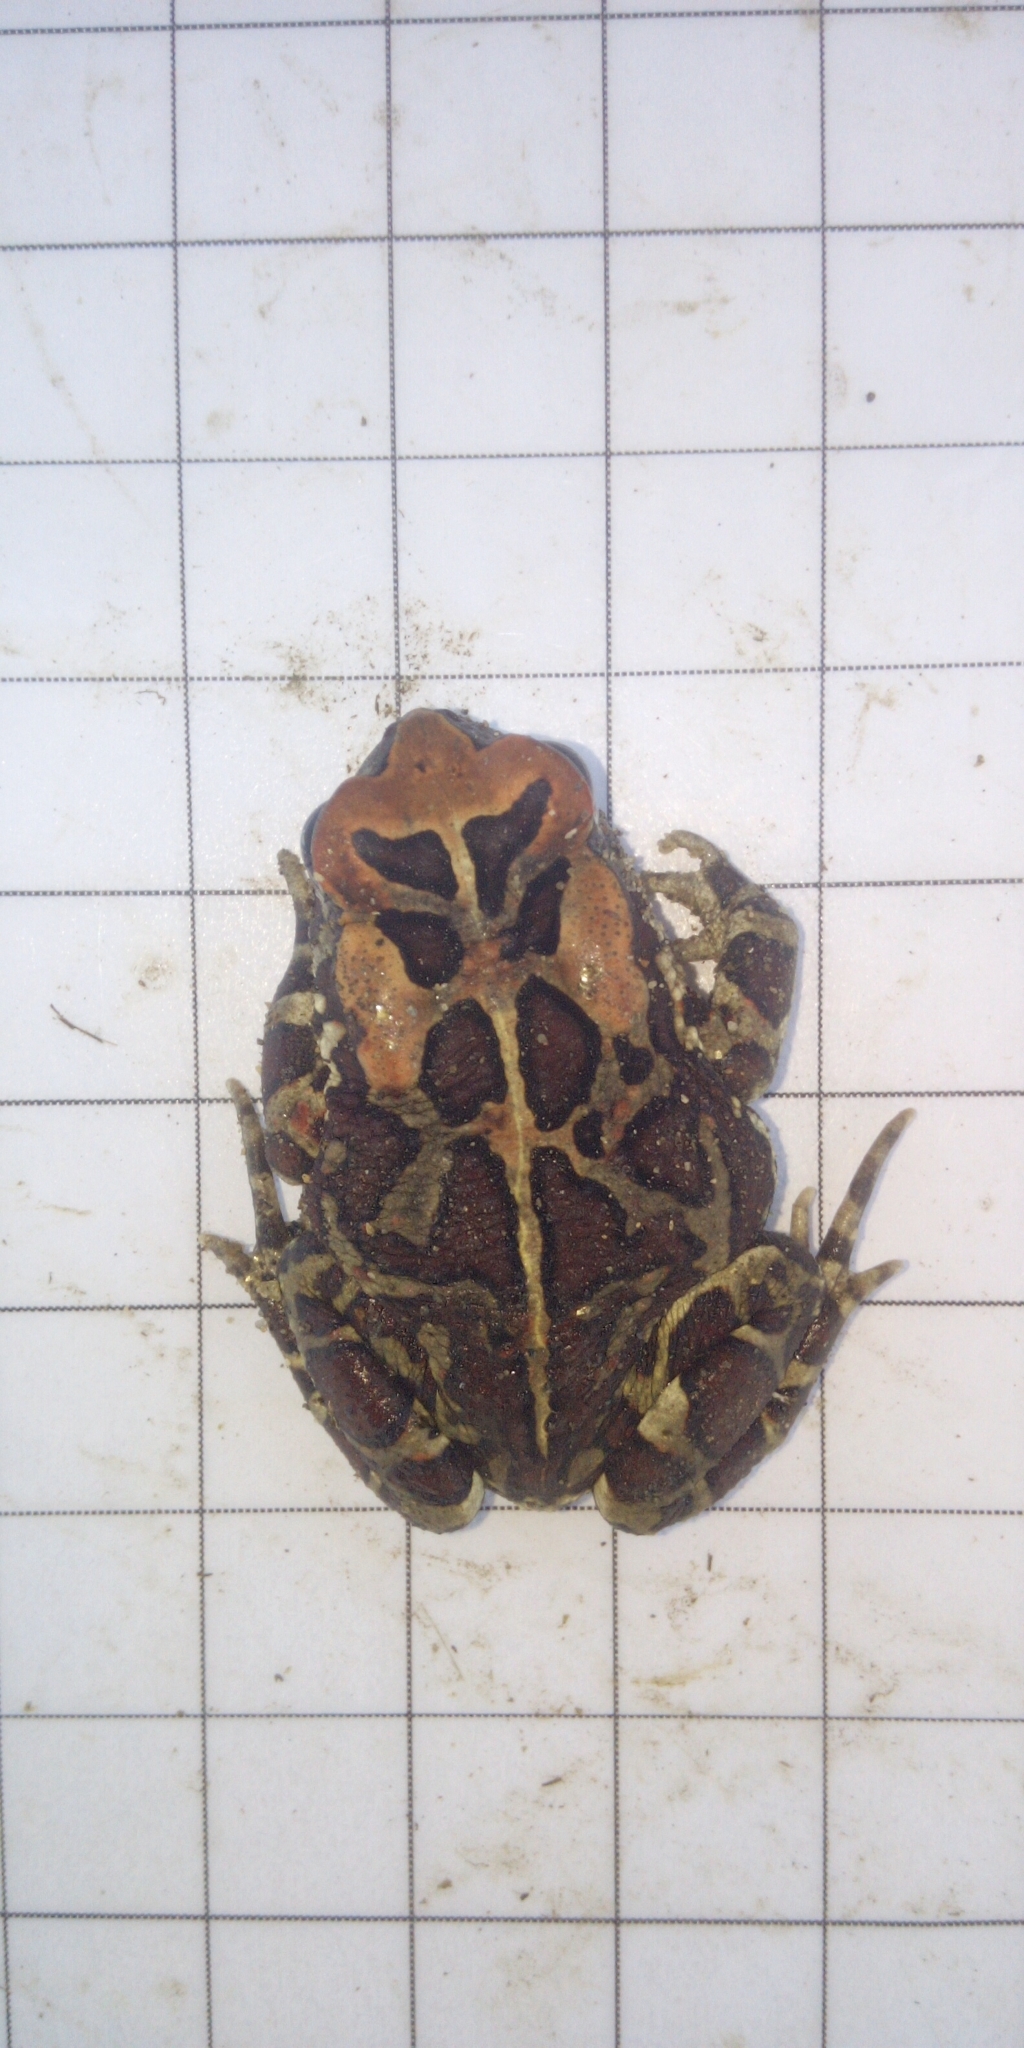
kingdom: Animalia
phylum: Chordata
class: Amphibia
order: Anura
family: Bufonidae
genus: Sclerophrys
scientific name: Sclerophrys pantherina
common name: Panther toad
